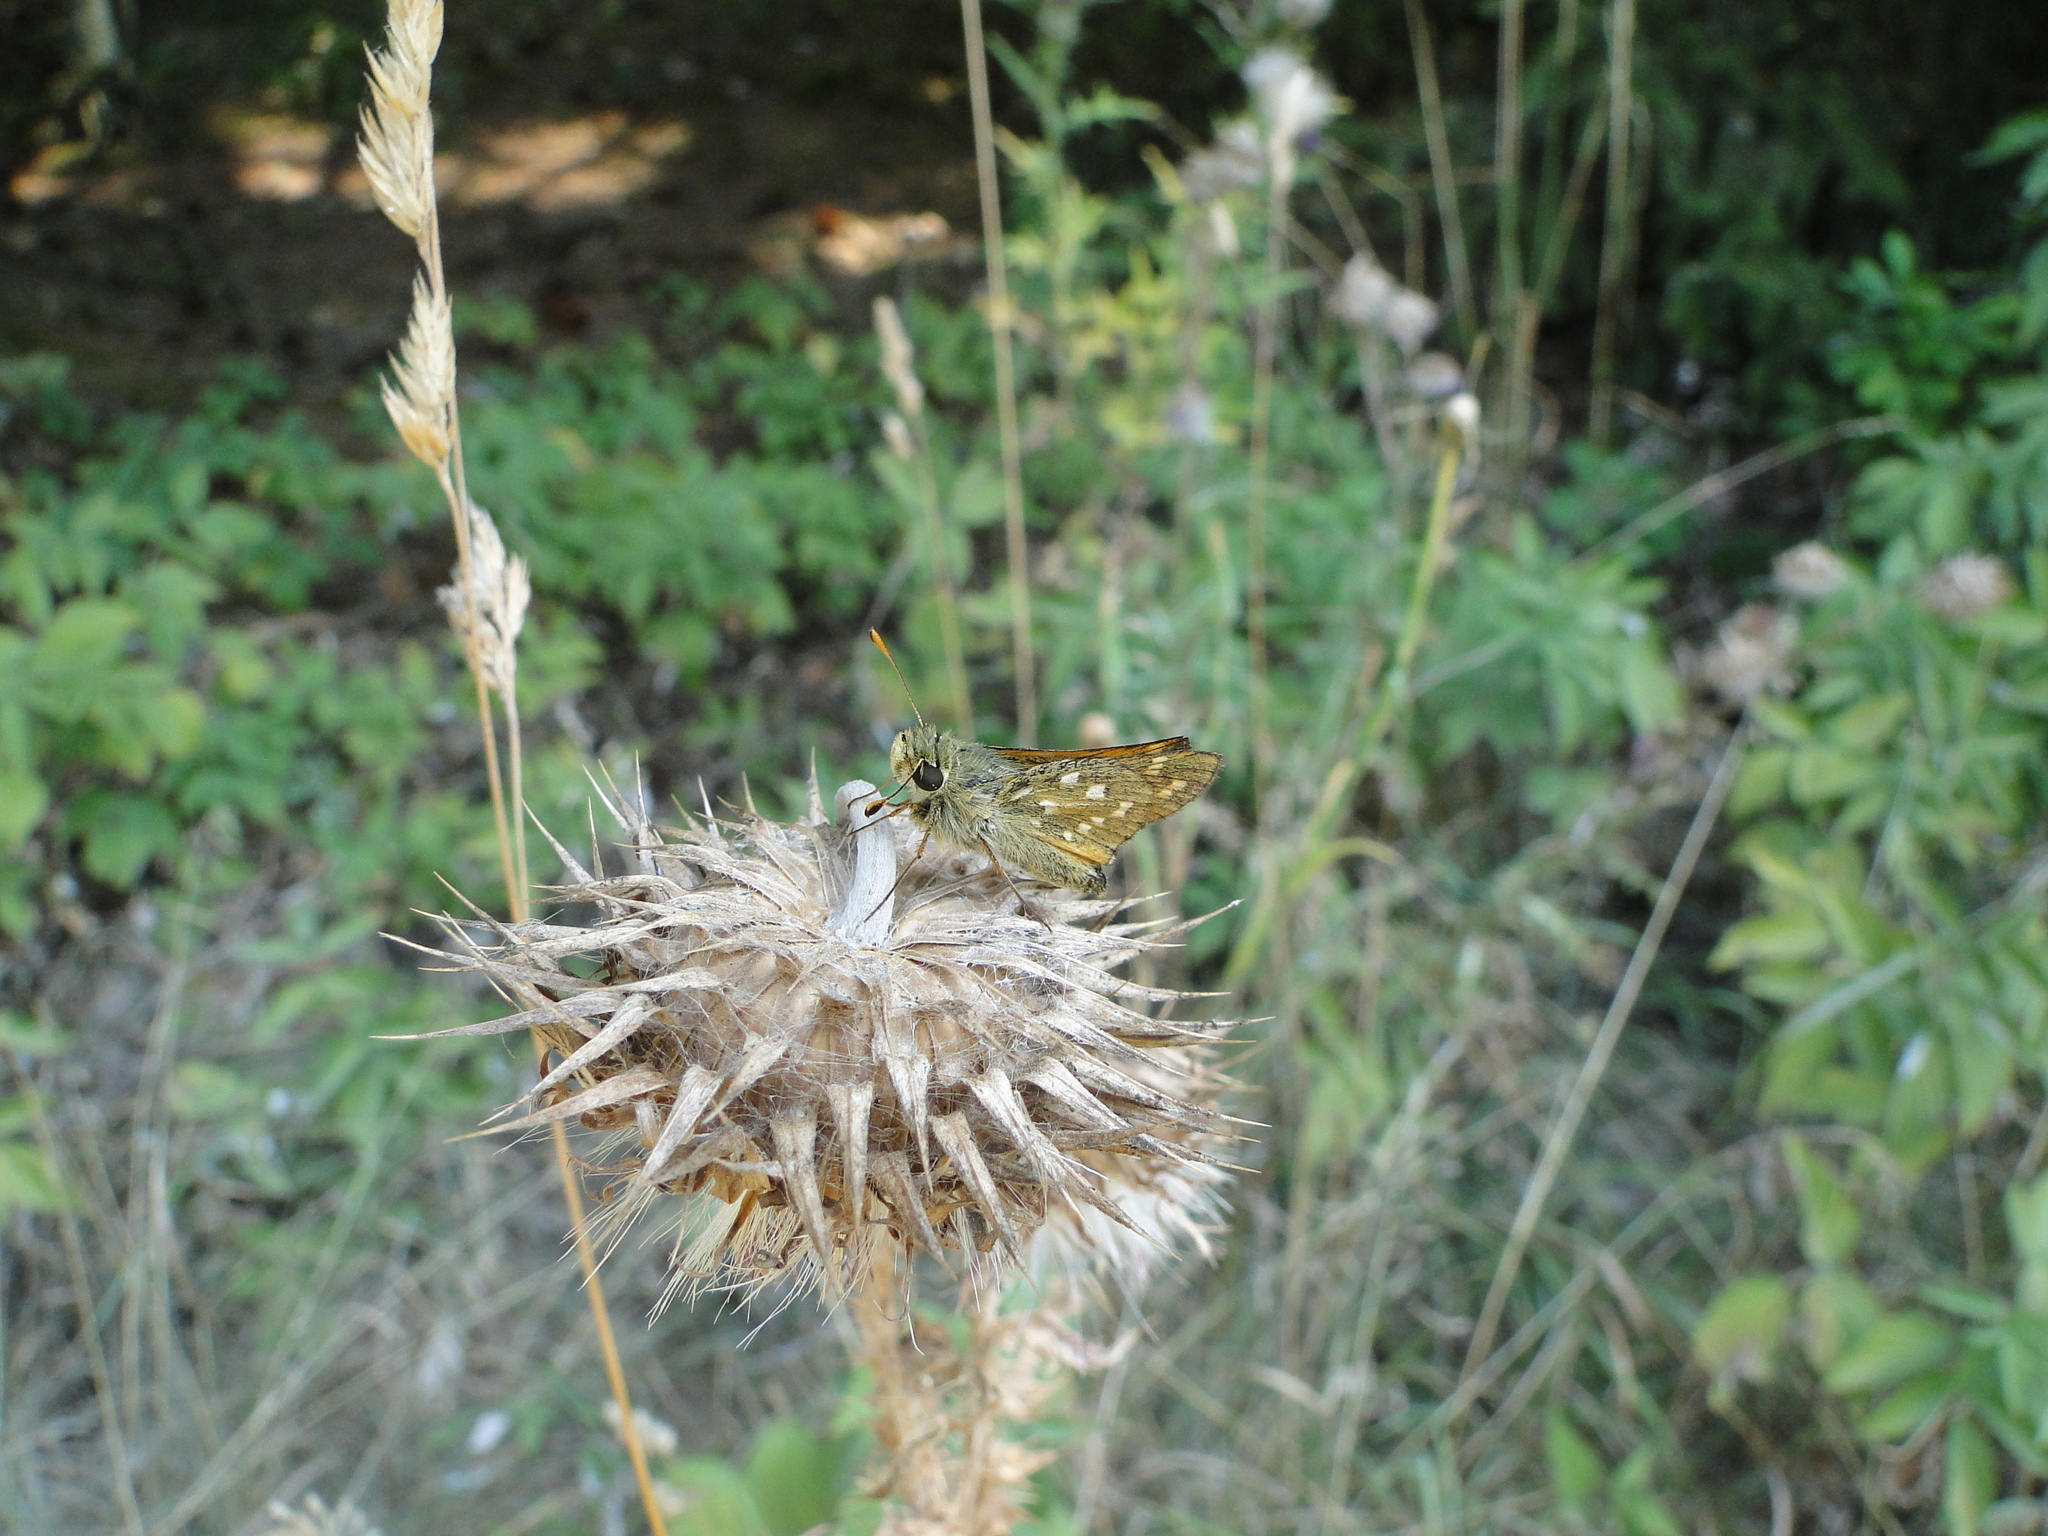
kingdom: Animalia
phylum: Arthropoda
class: Insecta
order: Lepidoptera
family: Hesperiidae
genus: Hesperia
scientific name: Hesperia comma
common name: Common branded skipper
